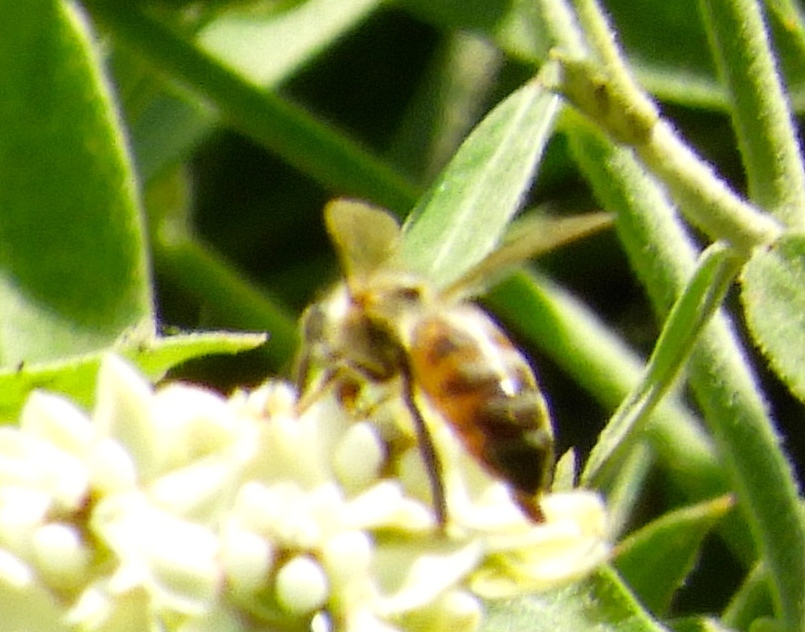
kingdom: Animalia
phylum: Arthropoda
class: Insecta
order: Hymenoptera
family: Apidae
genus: Apis
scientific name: Apis mellifera
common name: Honey bee
